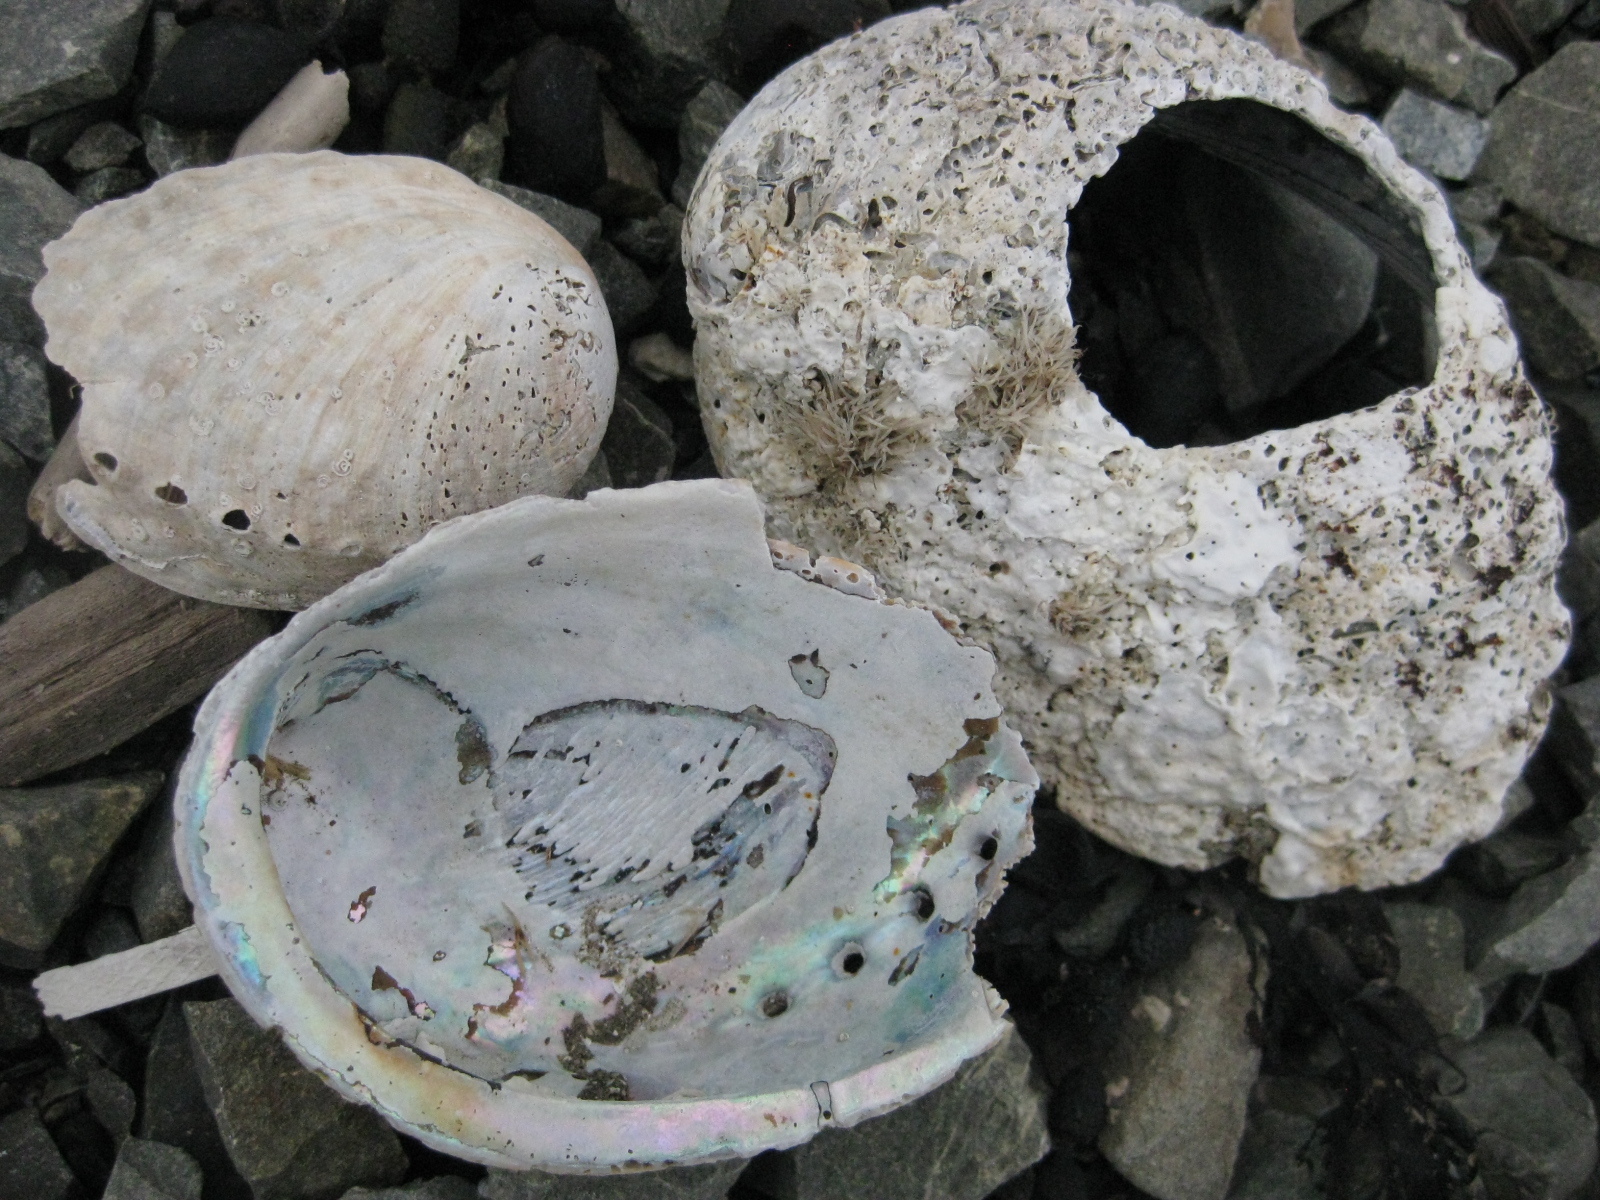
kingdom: Animalia
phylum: Mollusca
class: Gastropoda
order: Lepetellida
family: Haliotidae
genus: Haliotis
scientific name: Haliotis iris
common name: Abalone
